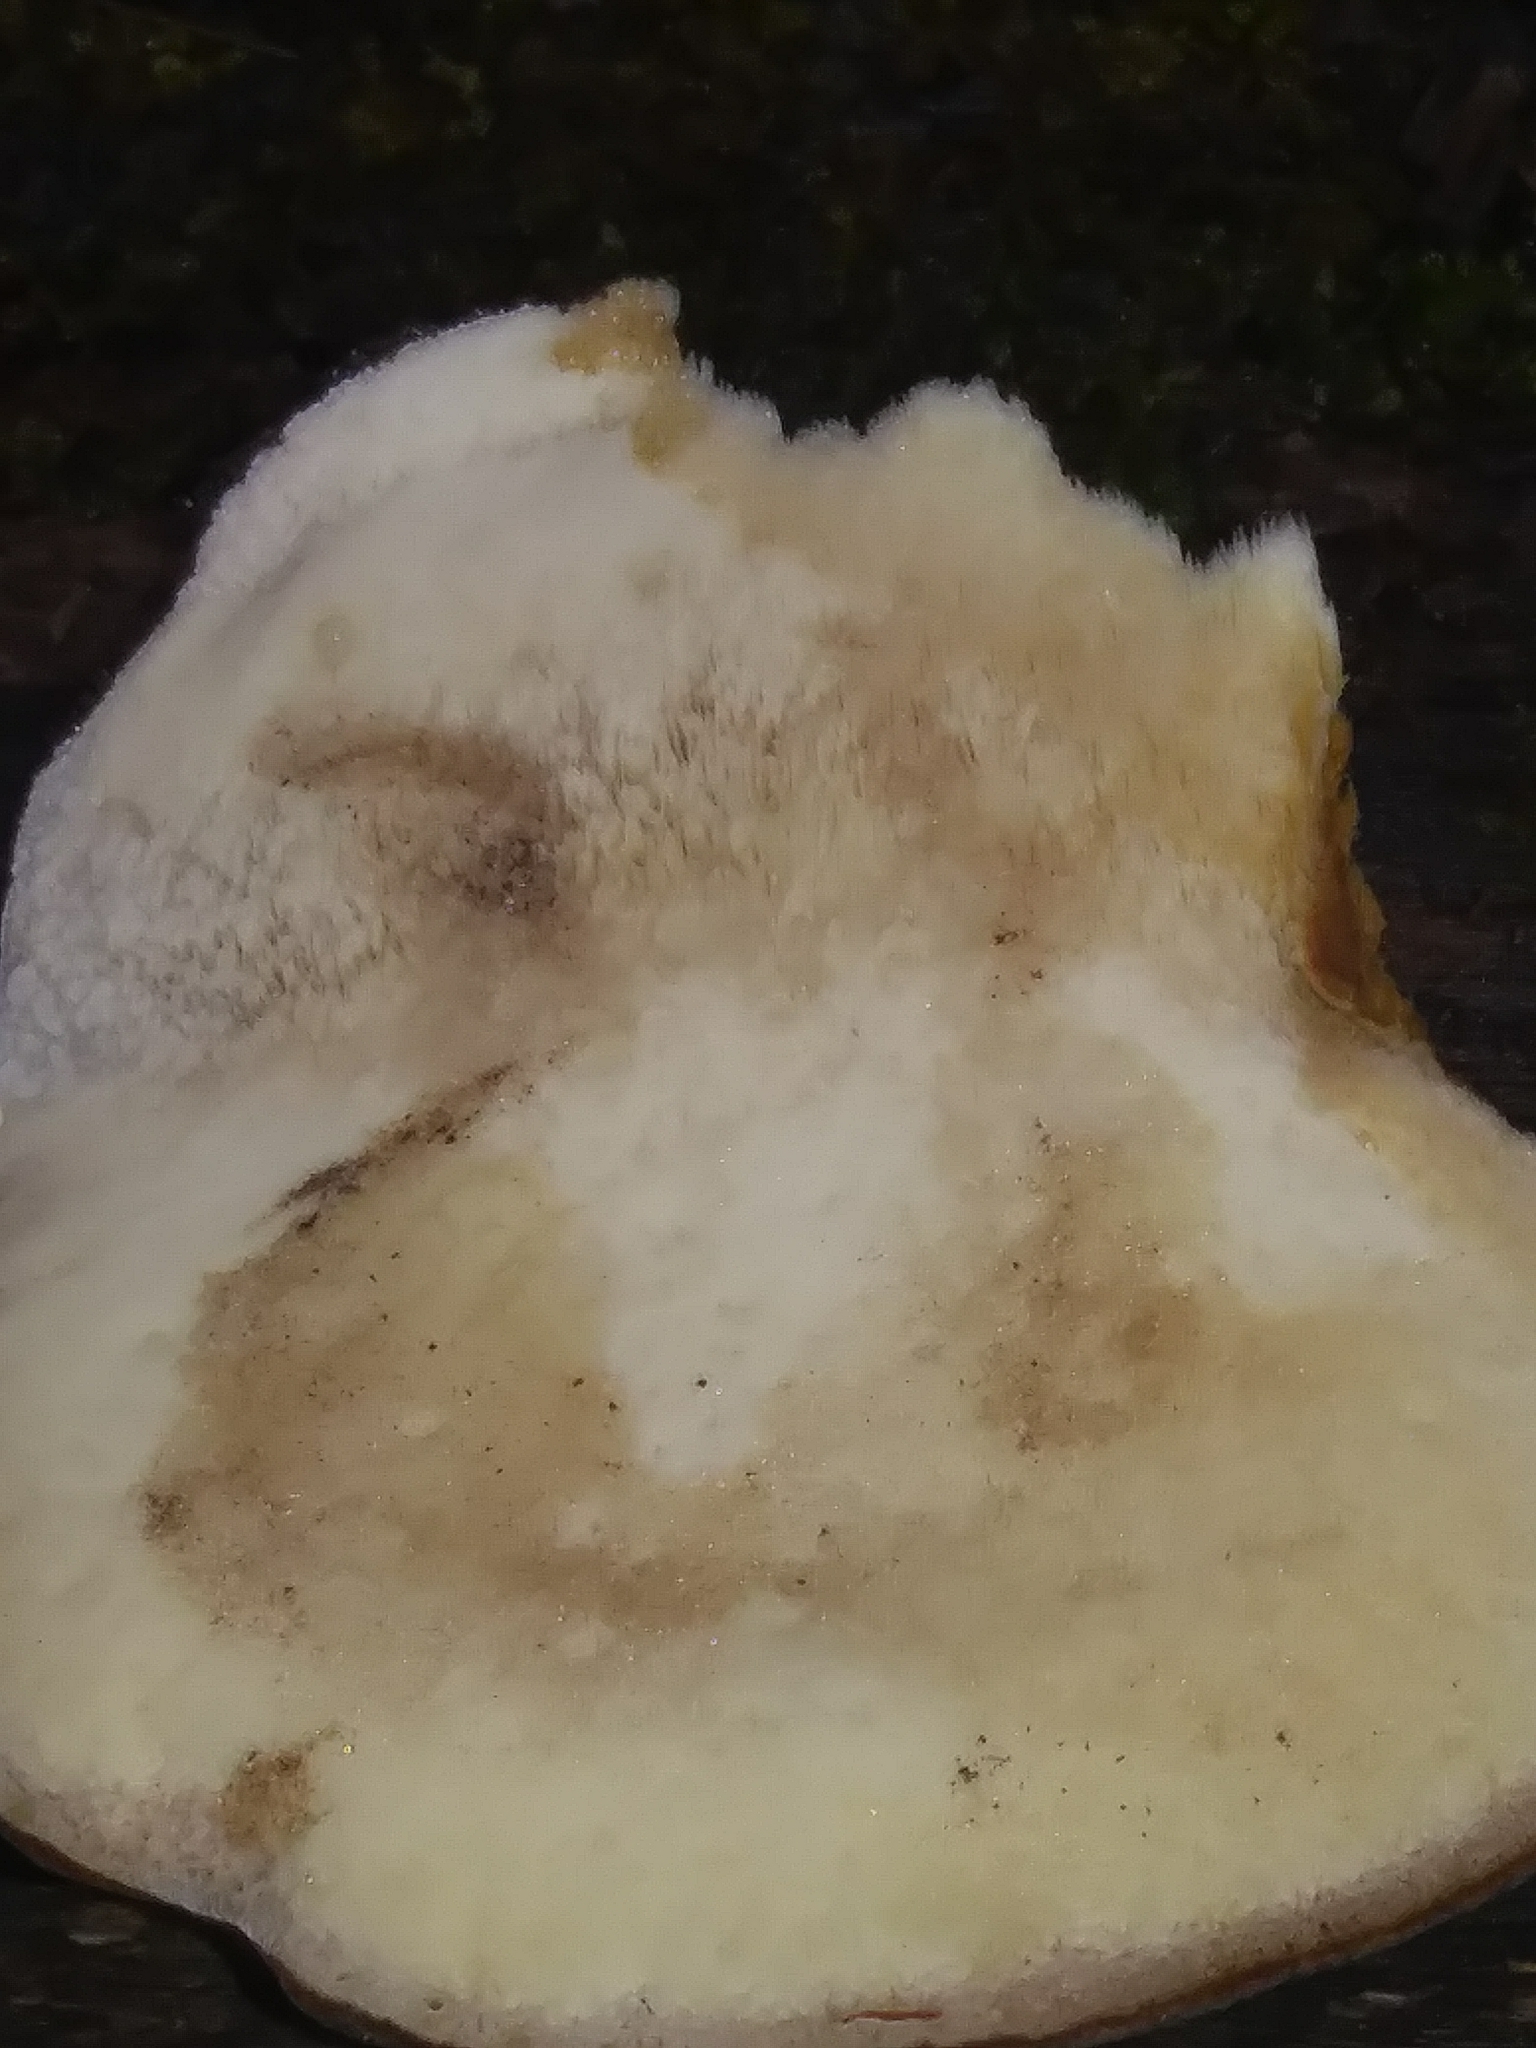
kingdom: Fungi
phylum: Basidiomycota
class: Agaricomycetes
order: Polyporales
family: Ischnodermataceae
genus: Ischnoderma
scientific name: Ischnoderma resinosum
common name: Resinous polypore
